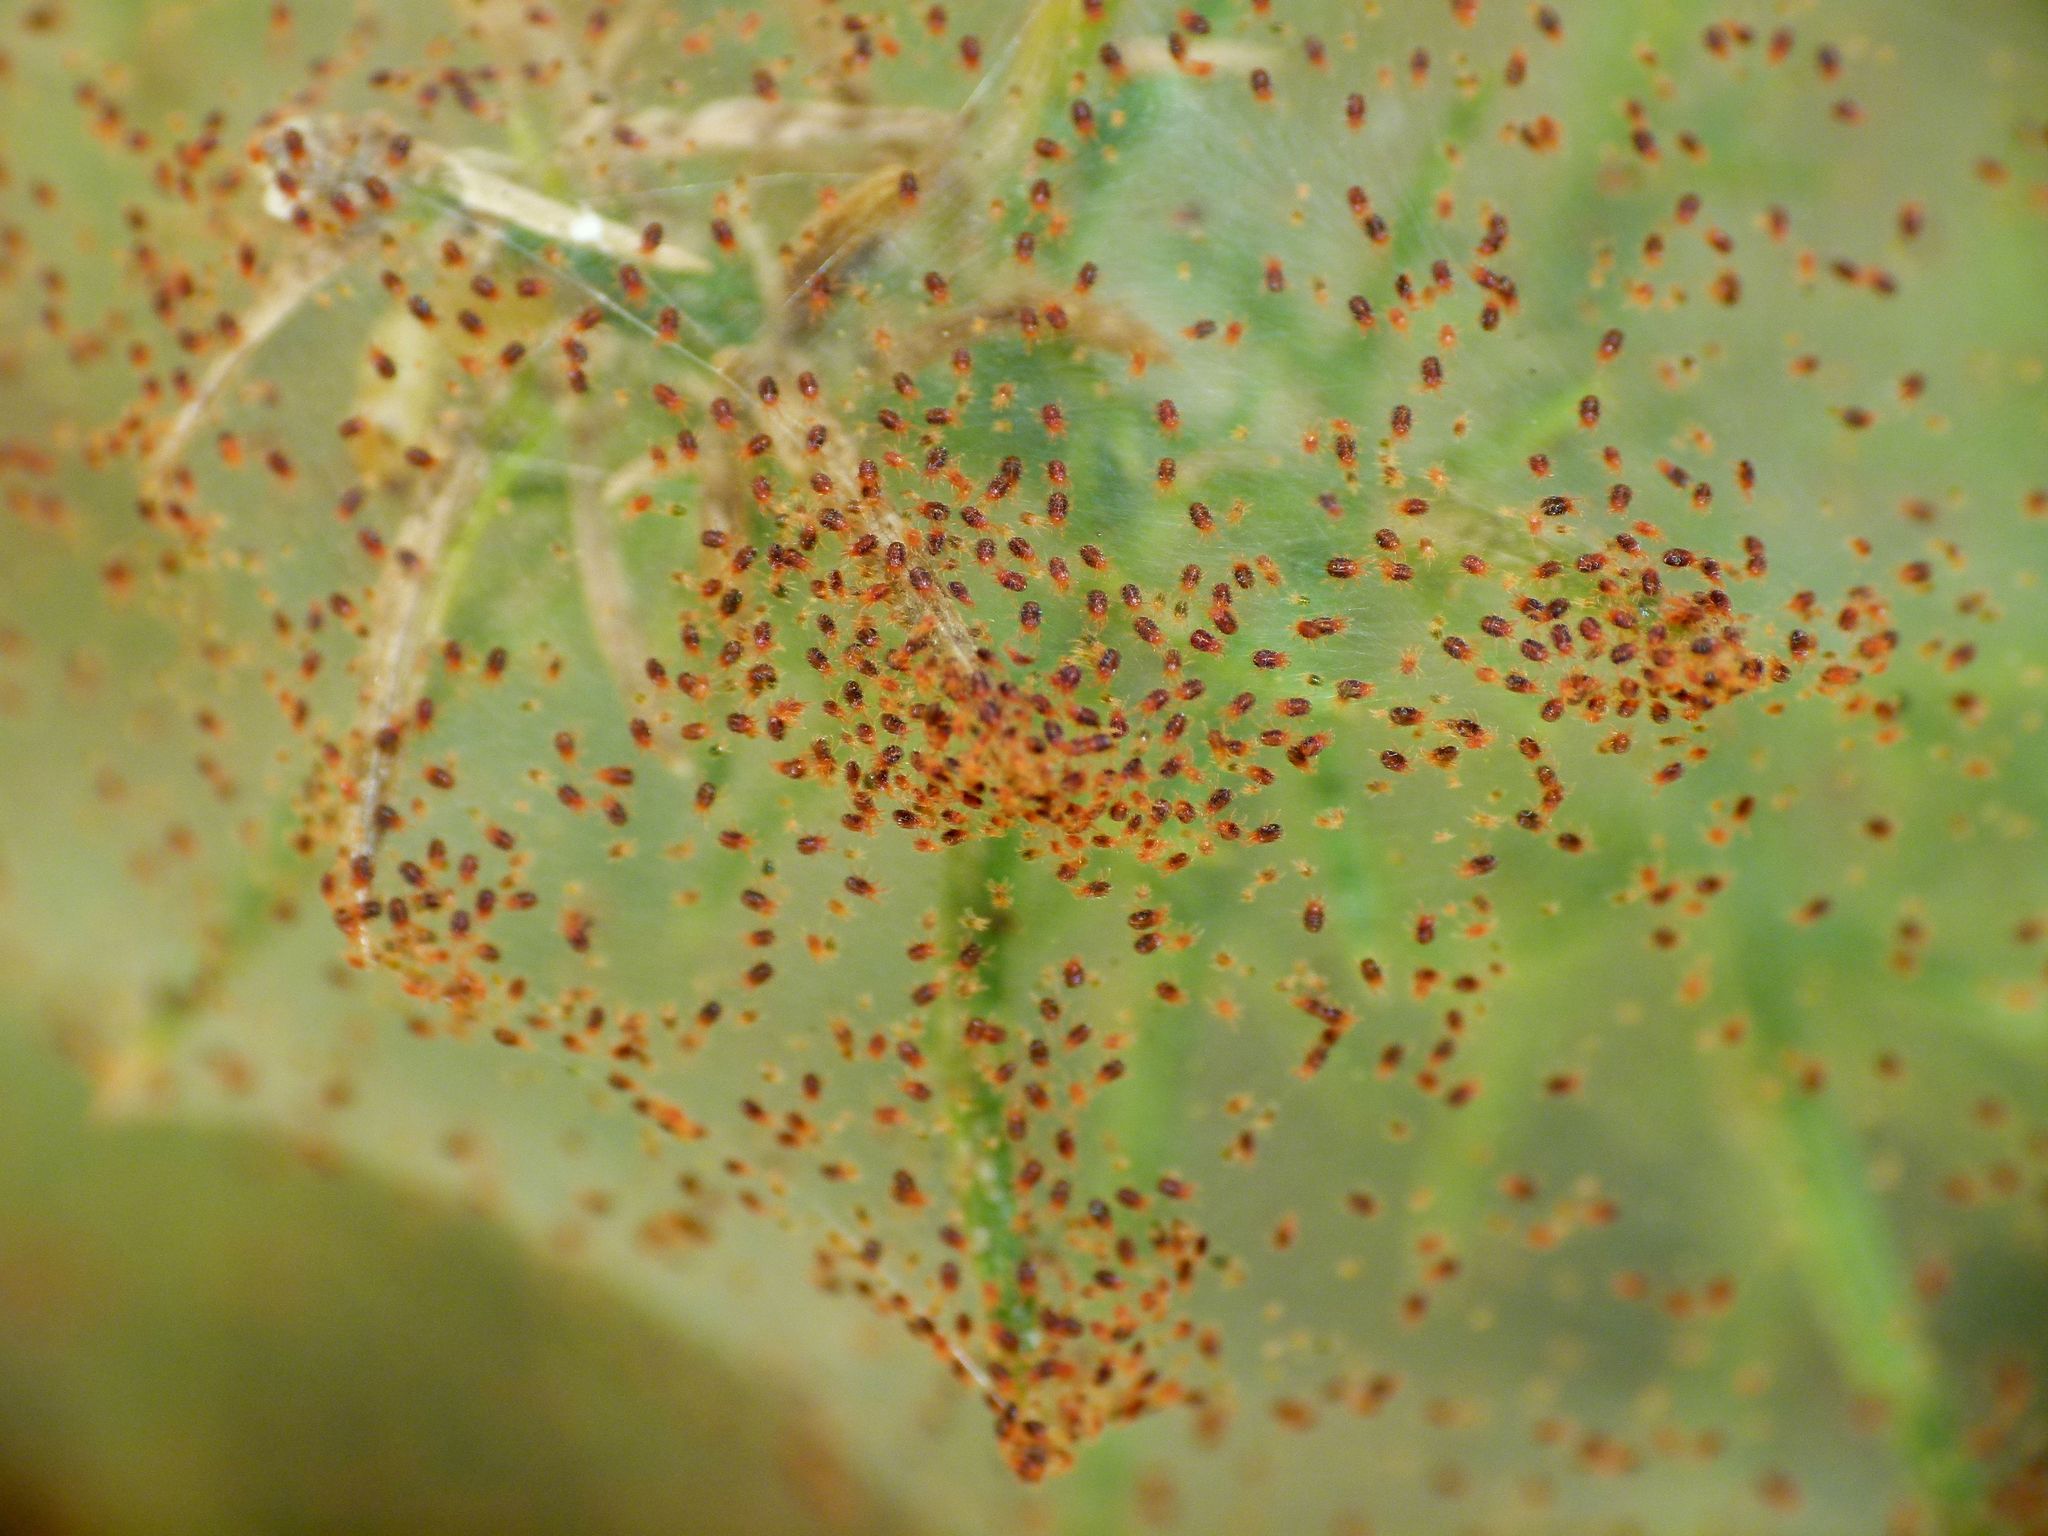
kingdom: Animalia
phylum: Arthropoda
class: Arachnida
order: Trombidiformes
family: Tetranychidae
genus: Tetranychus
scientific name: Tetranychus lintearius
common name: Gorse spider mite
